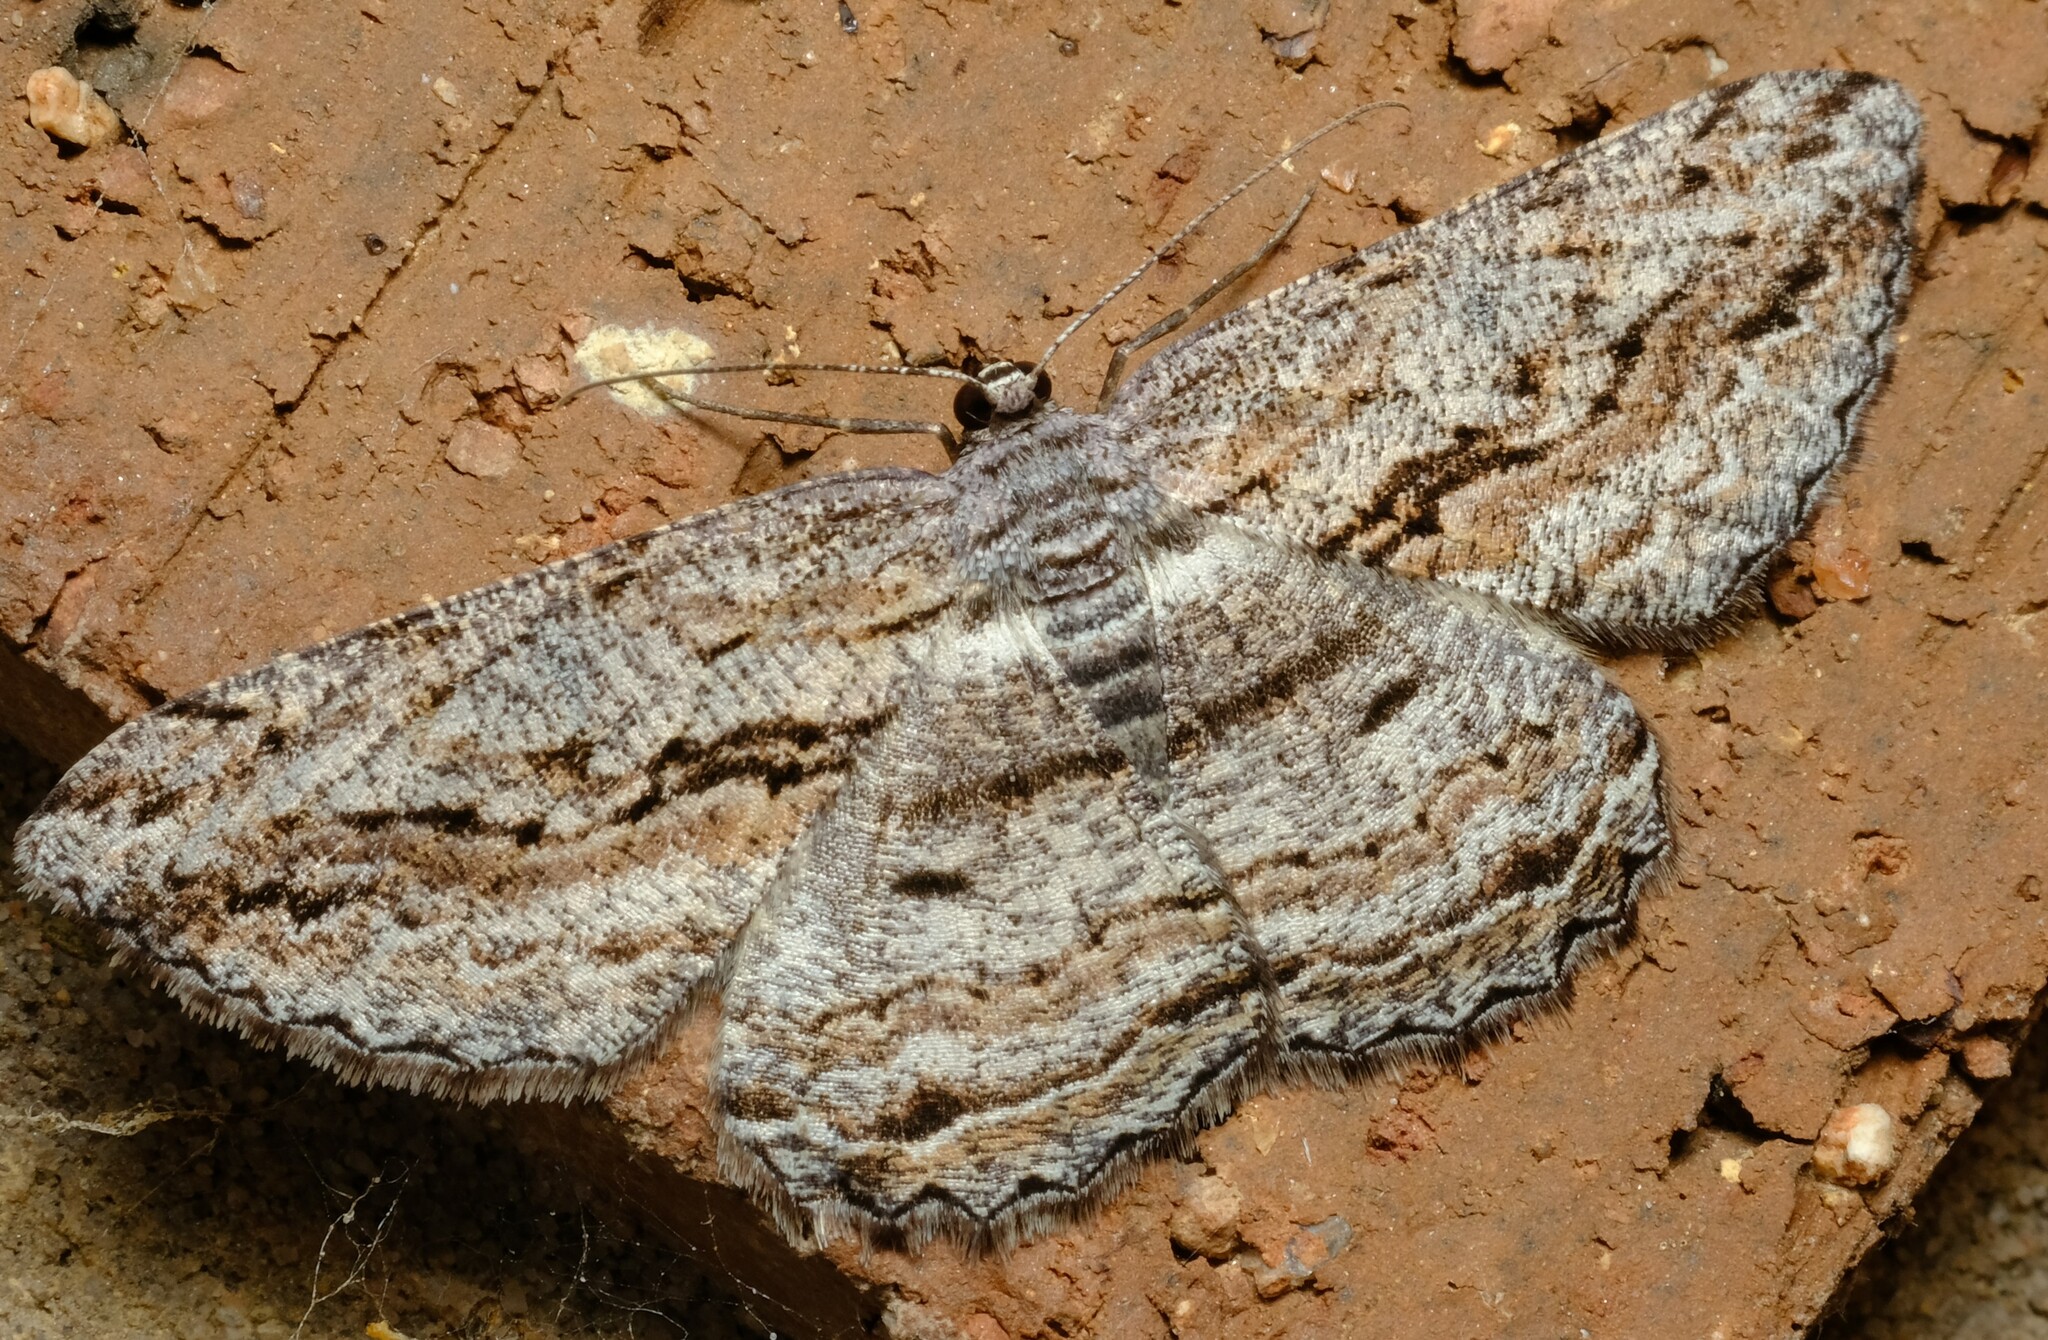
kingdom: Animalia
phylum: Arthropoda
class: Insecta
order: Lepidoptera
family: Geometridae
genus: Scioglyptis
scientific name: Scioglyptis chionomera
